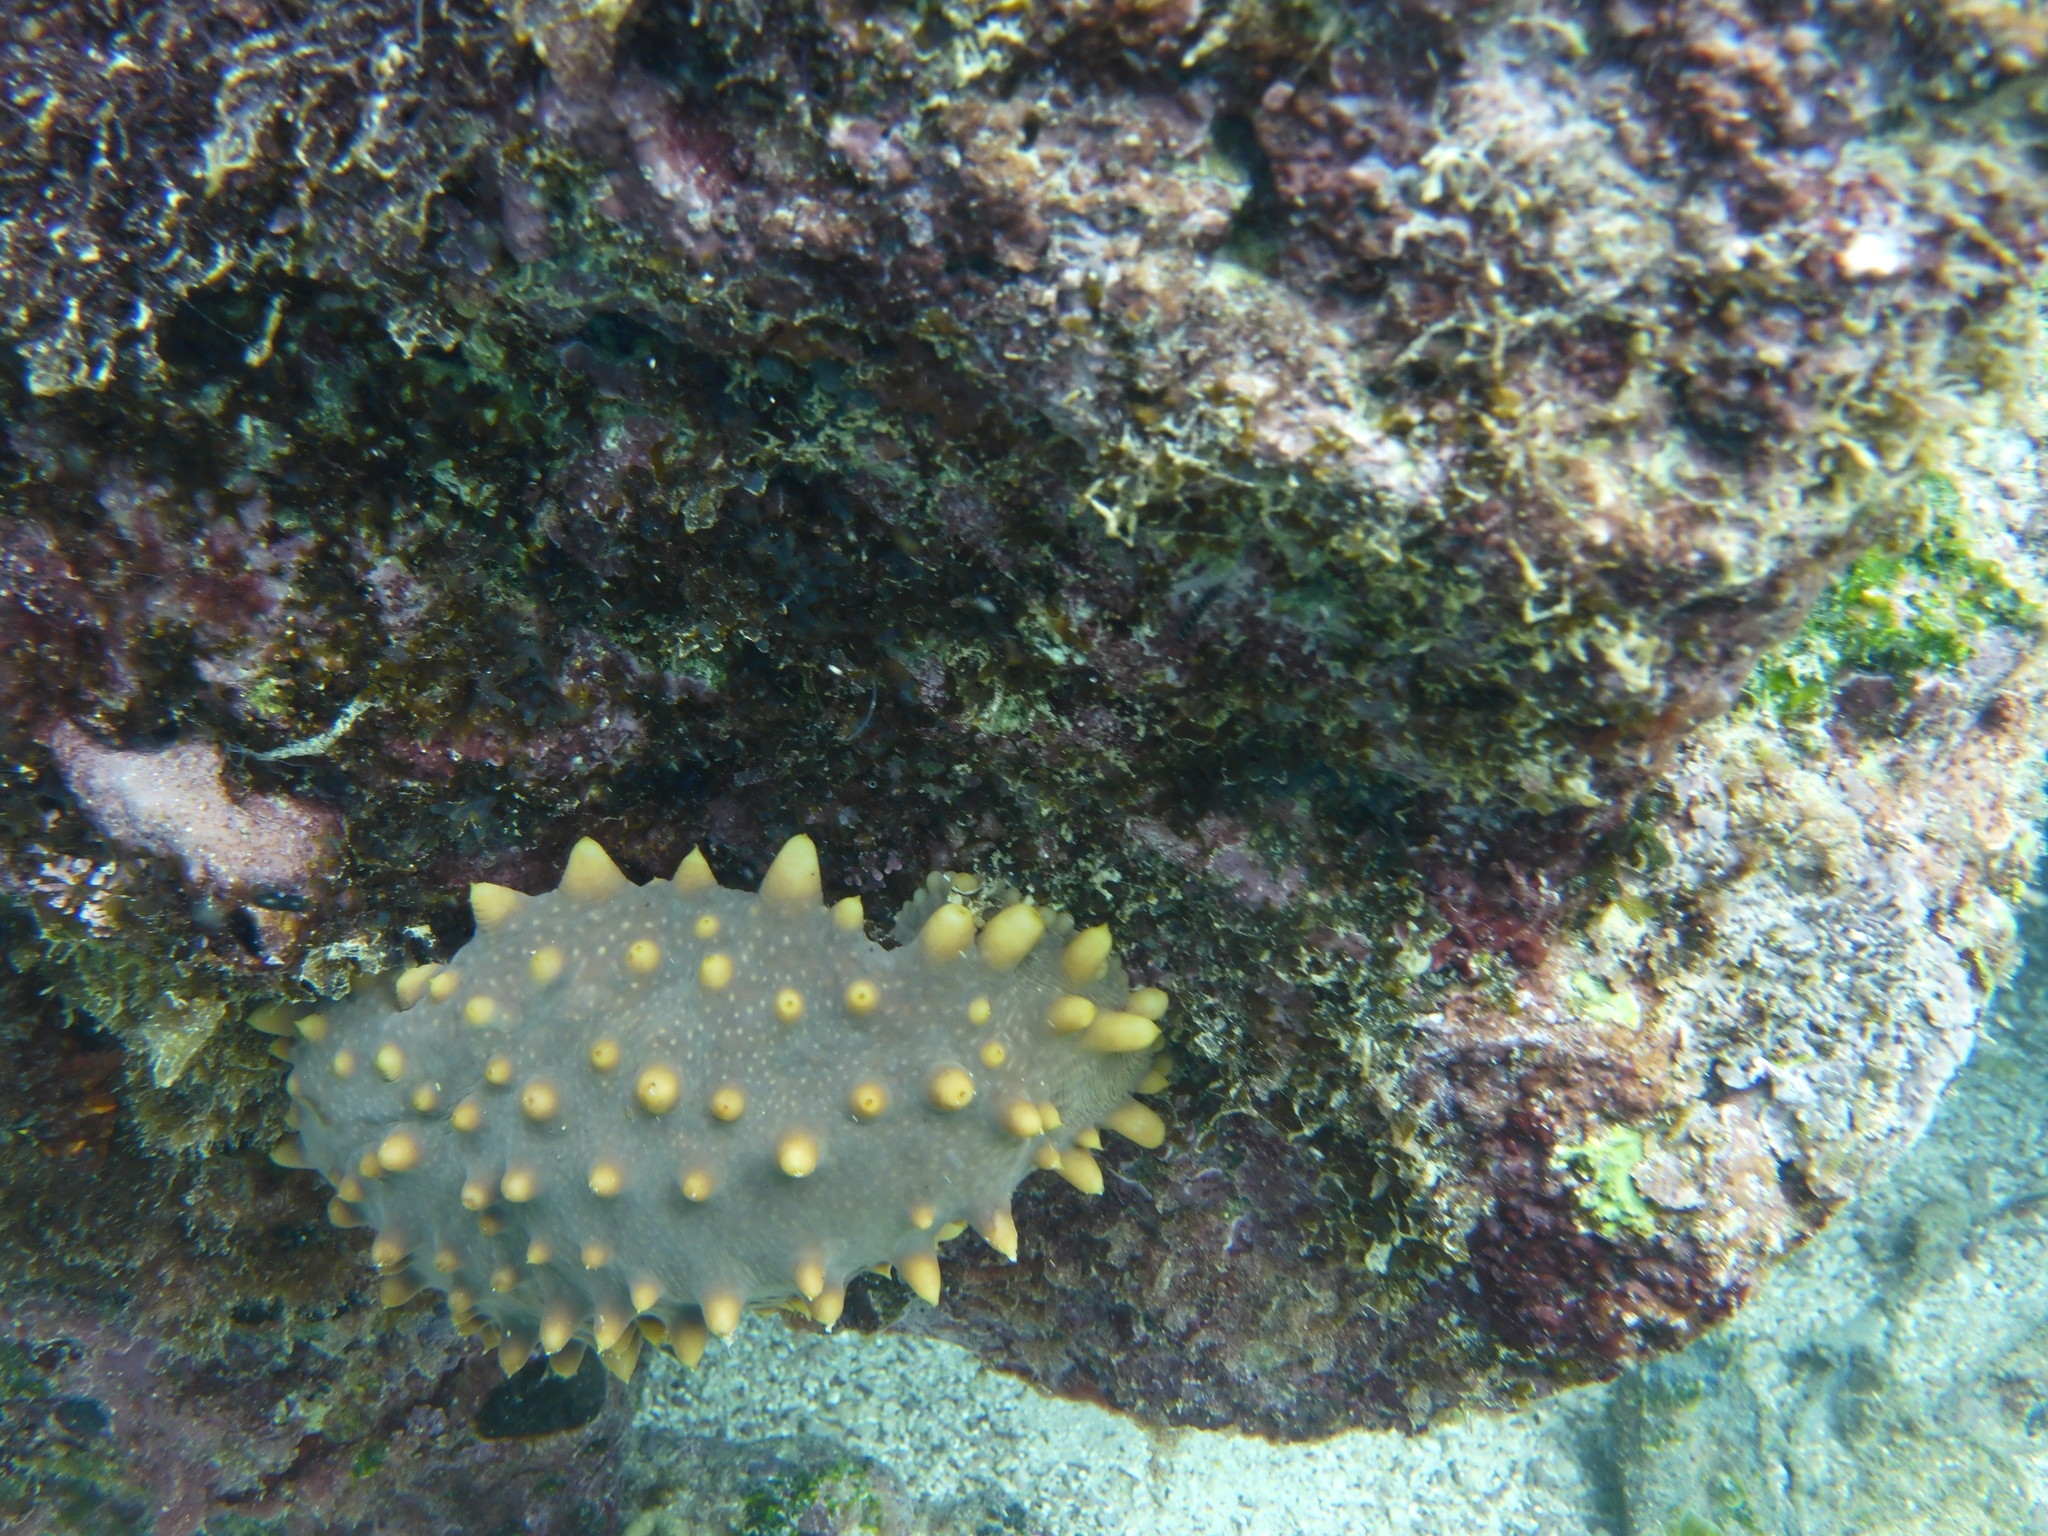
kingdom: Animalia
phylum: Echinodermata
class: Holothuroidea
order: Synallactida
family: Stichopodidae
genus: Isostichopus
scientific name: Isostichopus fuscus
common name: Brown sea cucumber
